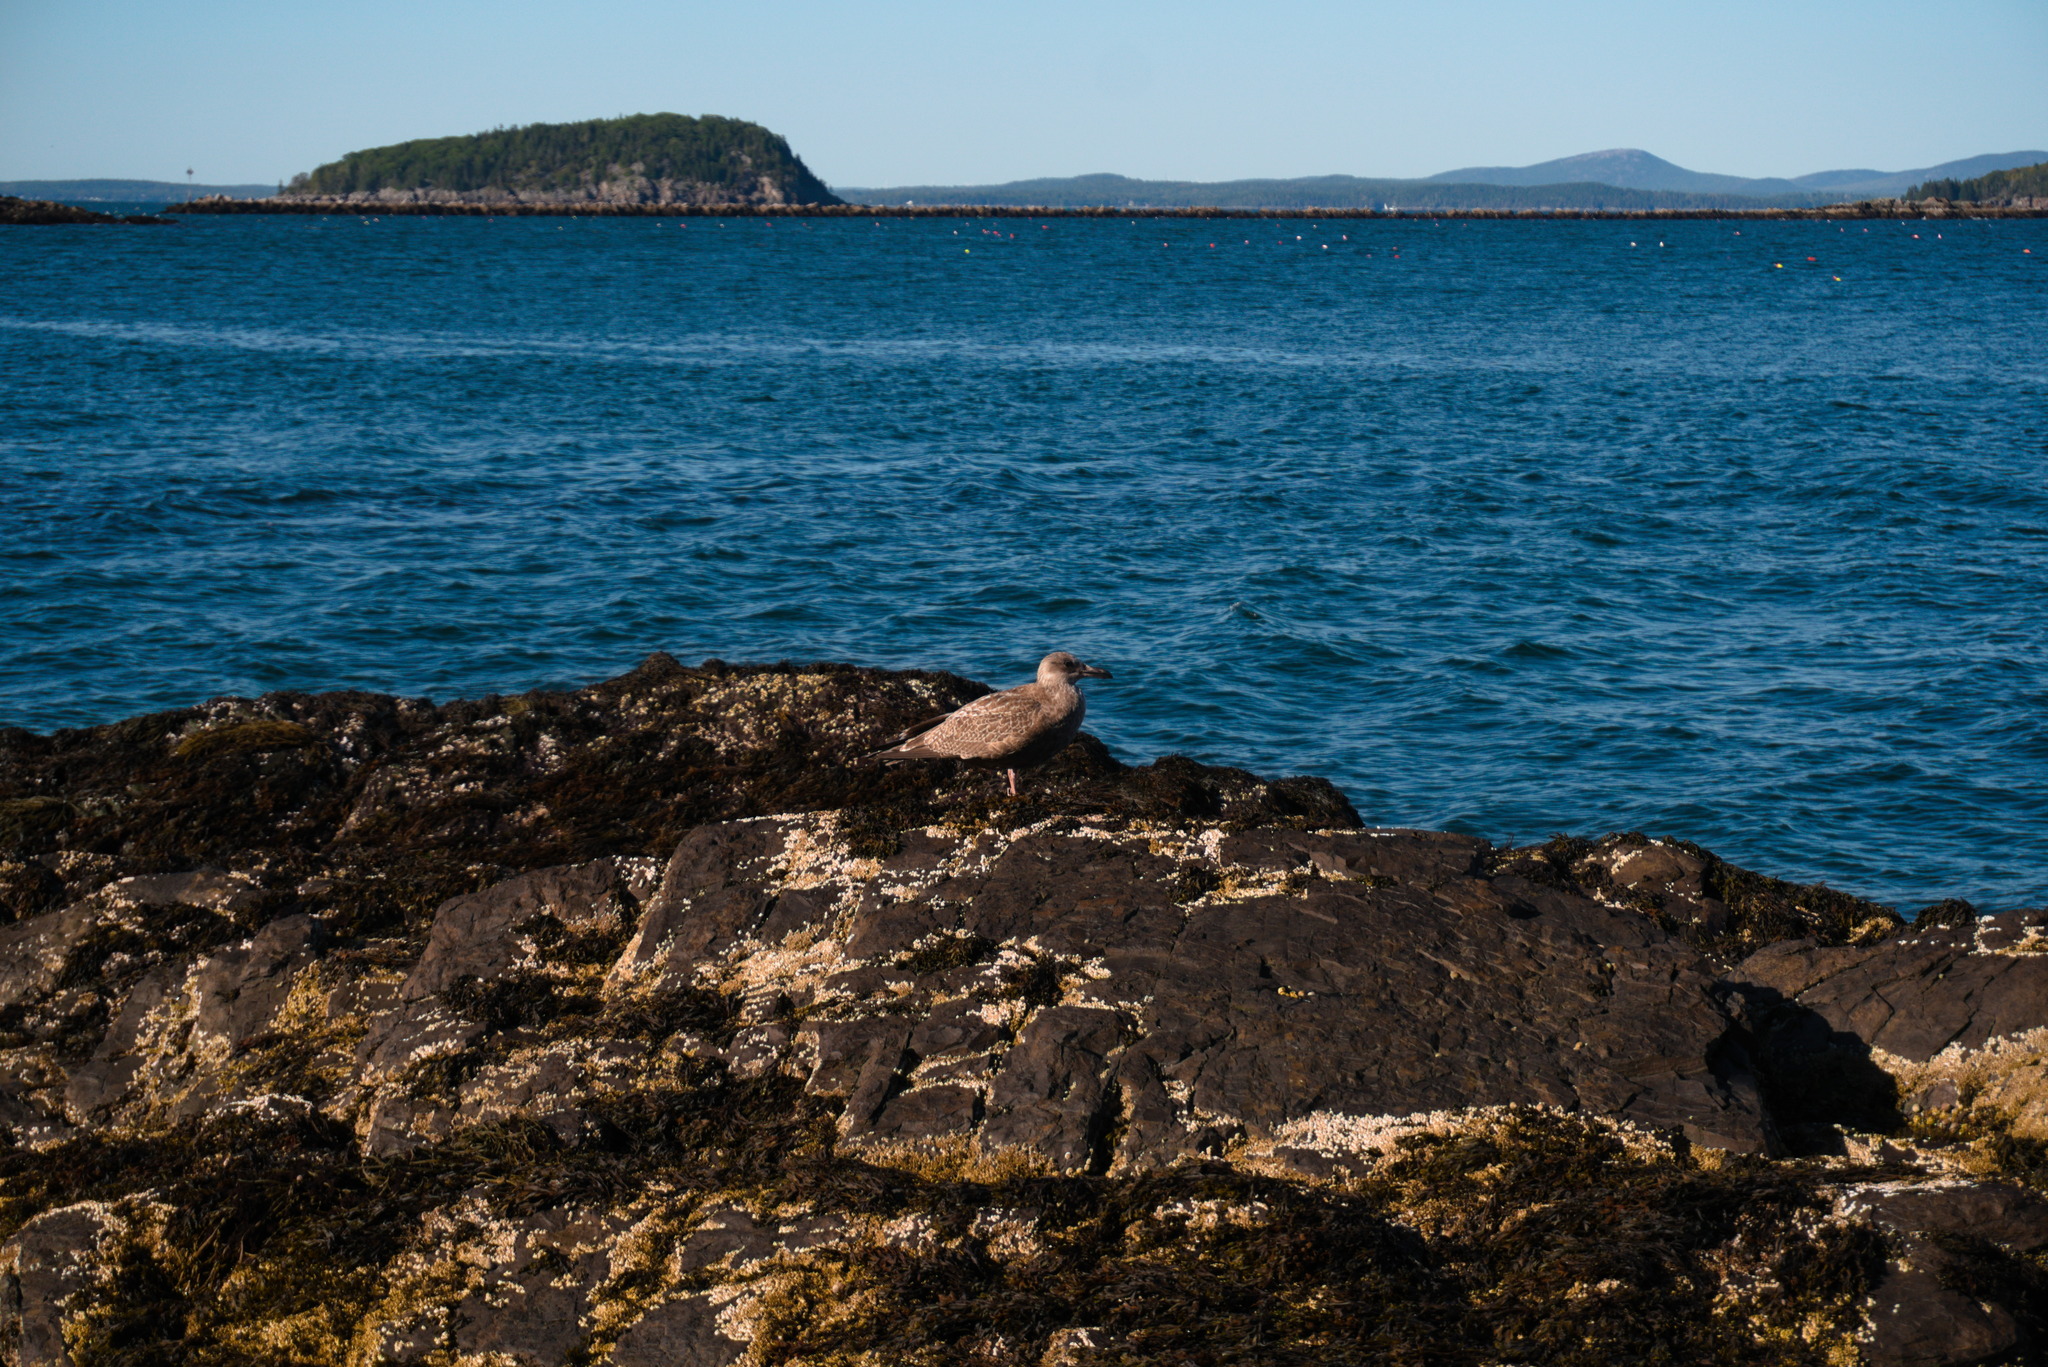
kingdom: Animalia
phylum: Chordata
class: Aves
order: Charadriiformes
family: Laridae
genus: Larus
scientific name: Larus argentatus
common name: Herring gull
